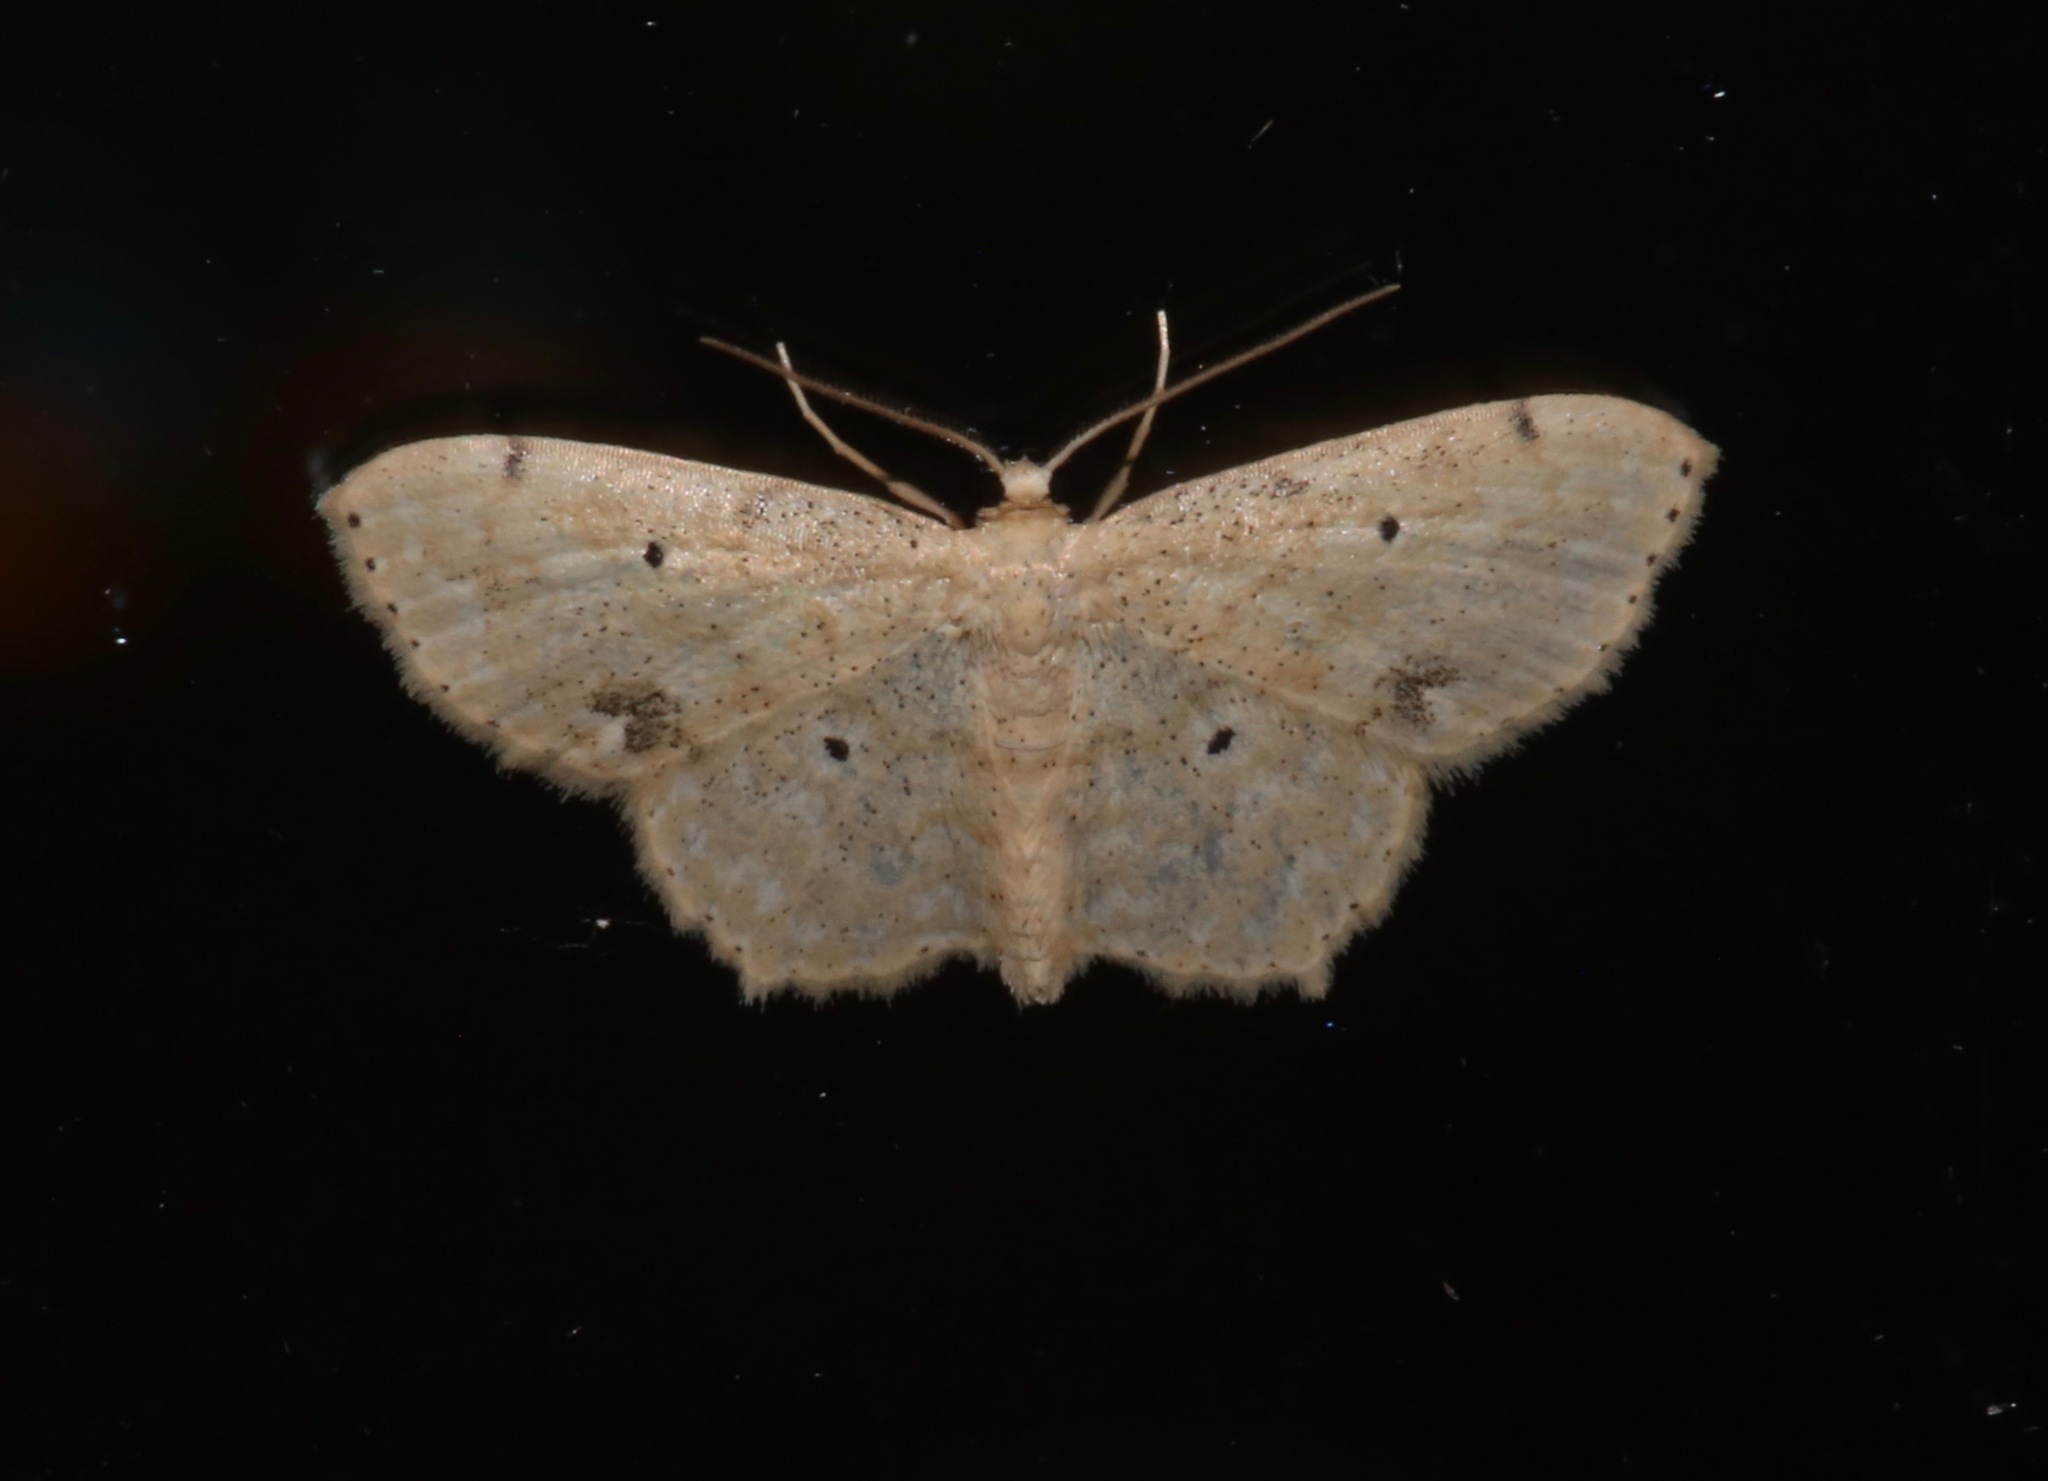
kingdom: Animalia
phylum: Arthropoda
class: Insecta
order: Lepidoptera
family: Geometridae
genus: Scopula
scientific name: Scopula compensata
